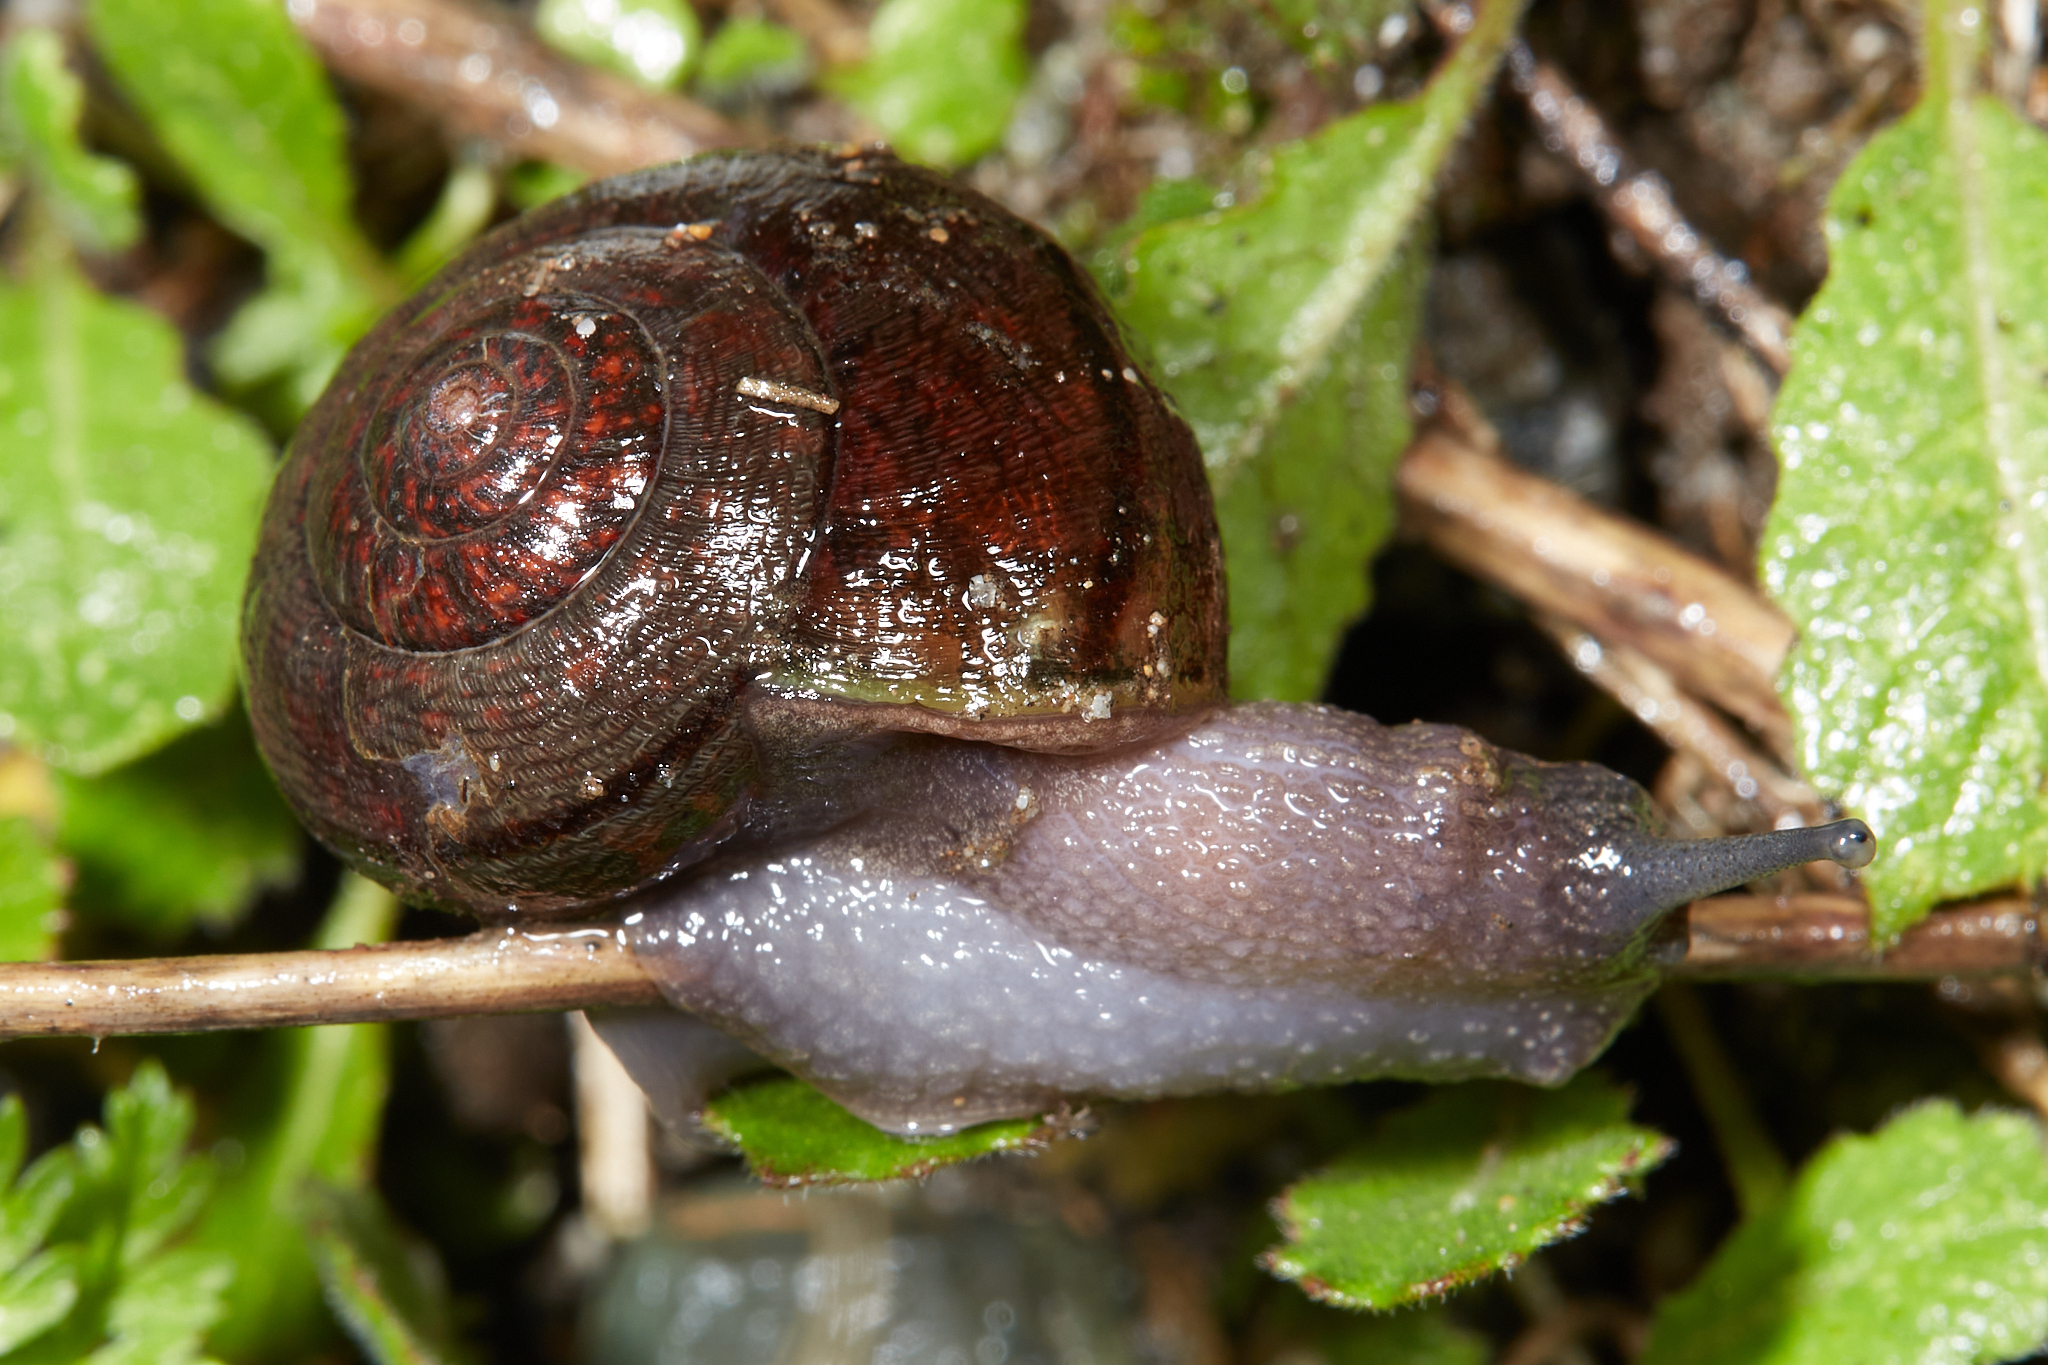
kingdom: Animalia
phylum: Mollusca
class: Gastropoda
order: Stylommatophora
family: Xanthonychidae
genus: Helminthoglypta
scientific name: Helminthoglypta nickliniana
